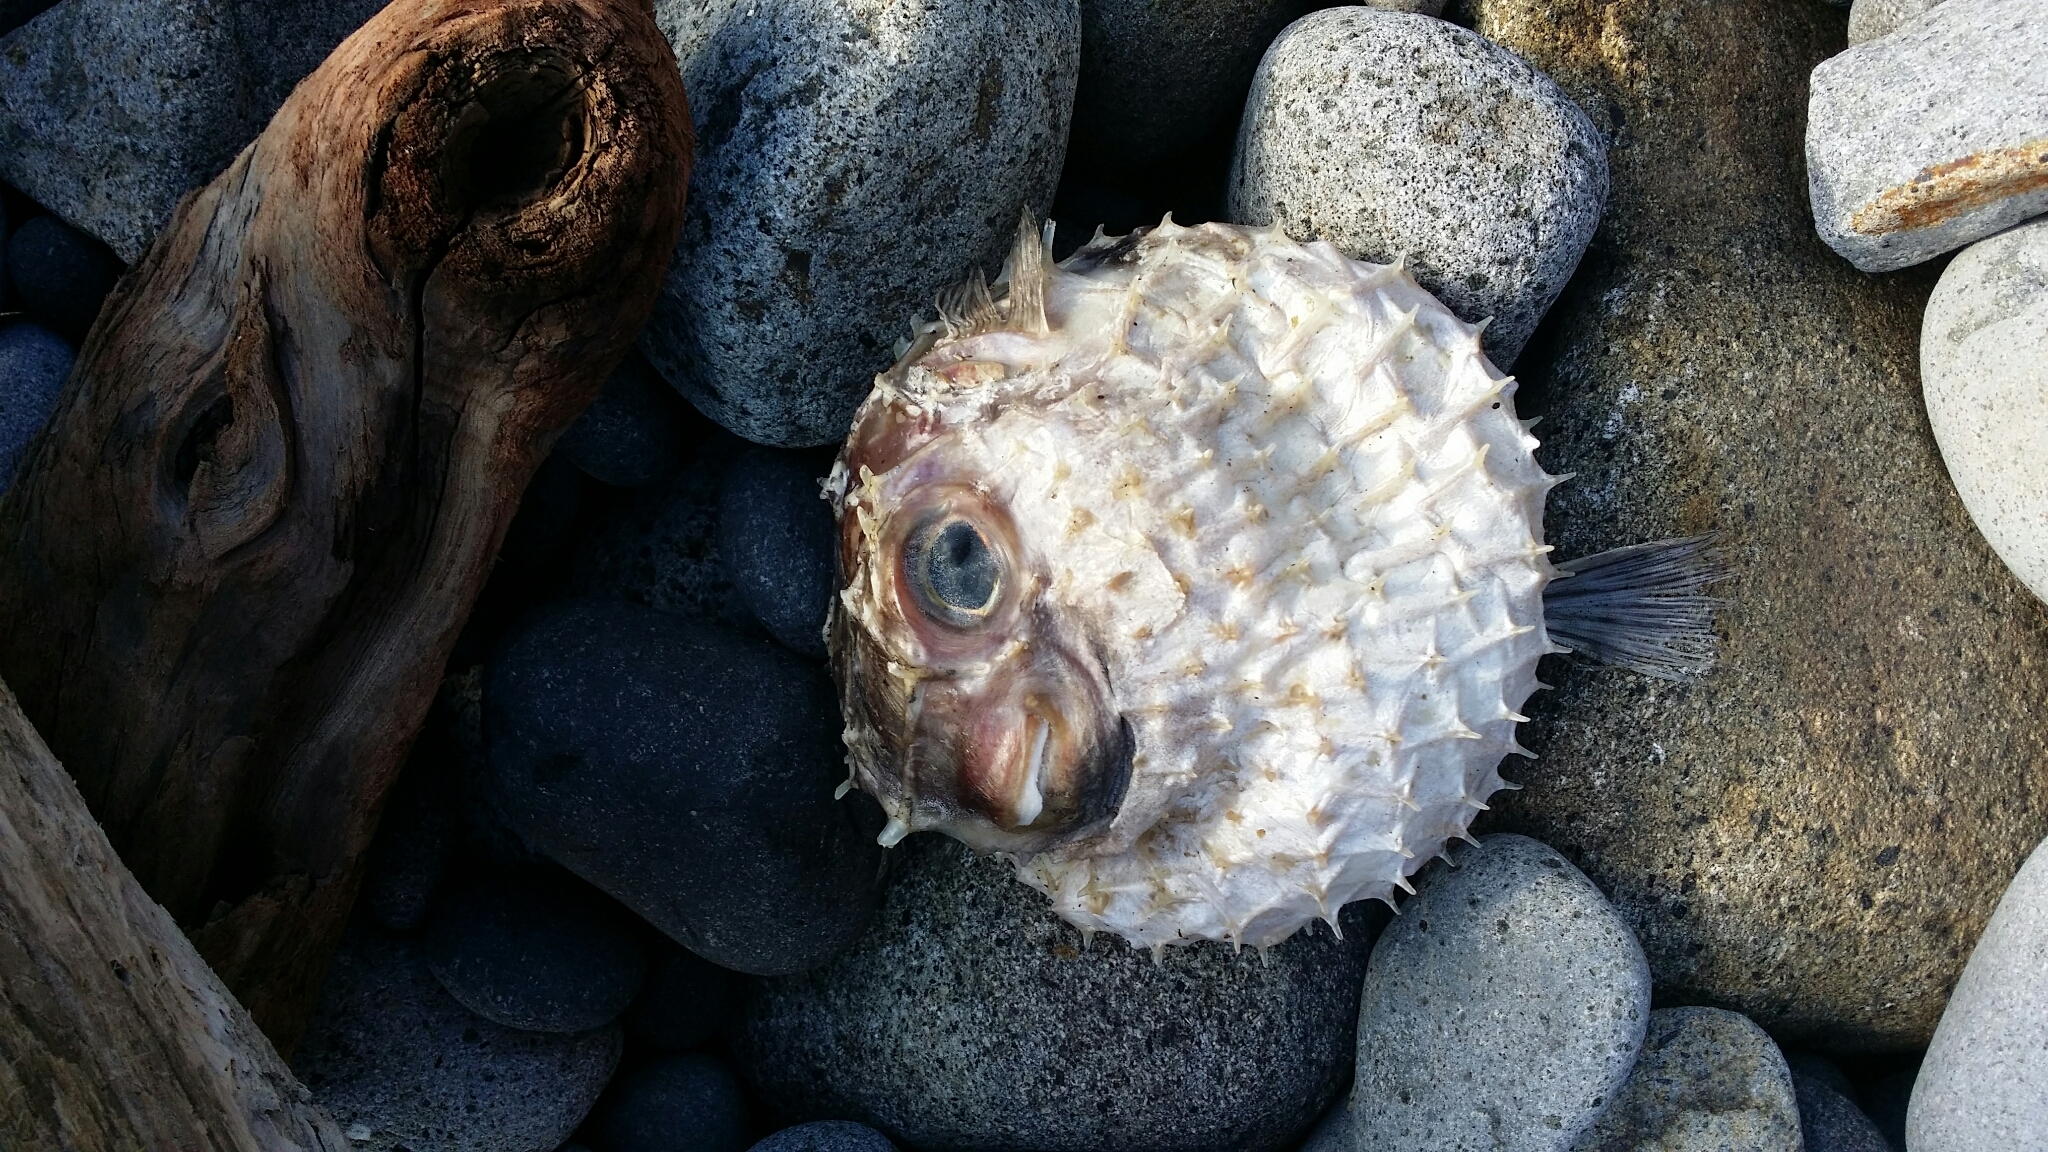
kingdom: Animalia
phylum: Chordata
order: Tetraodontiformes
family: Diodontidae
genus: Allomycterus
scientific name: Allomycterus pilatus
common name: No common name
